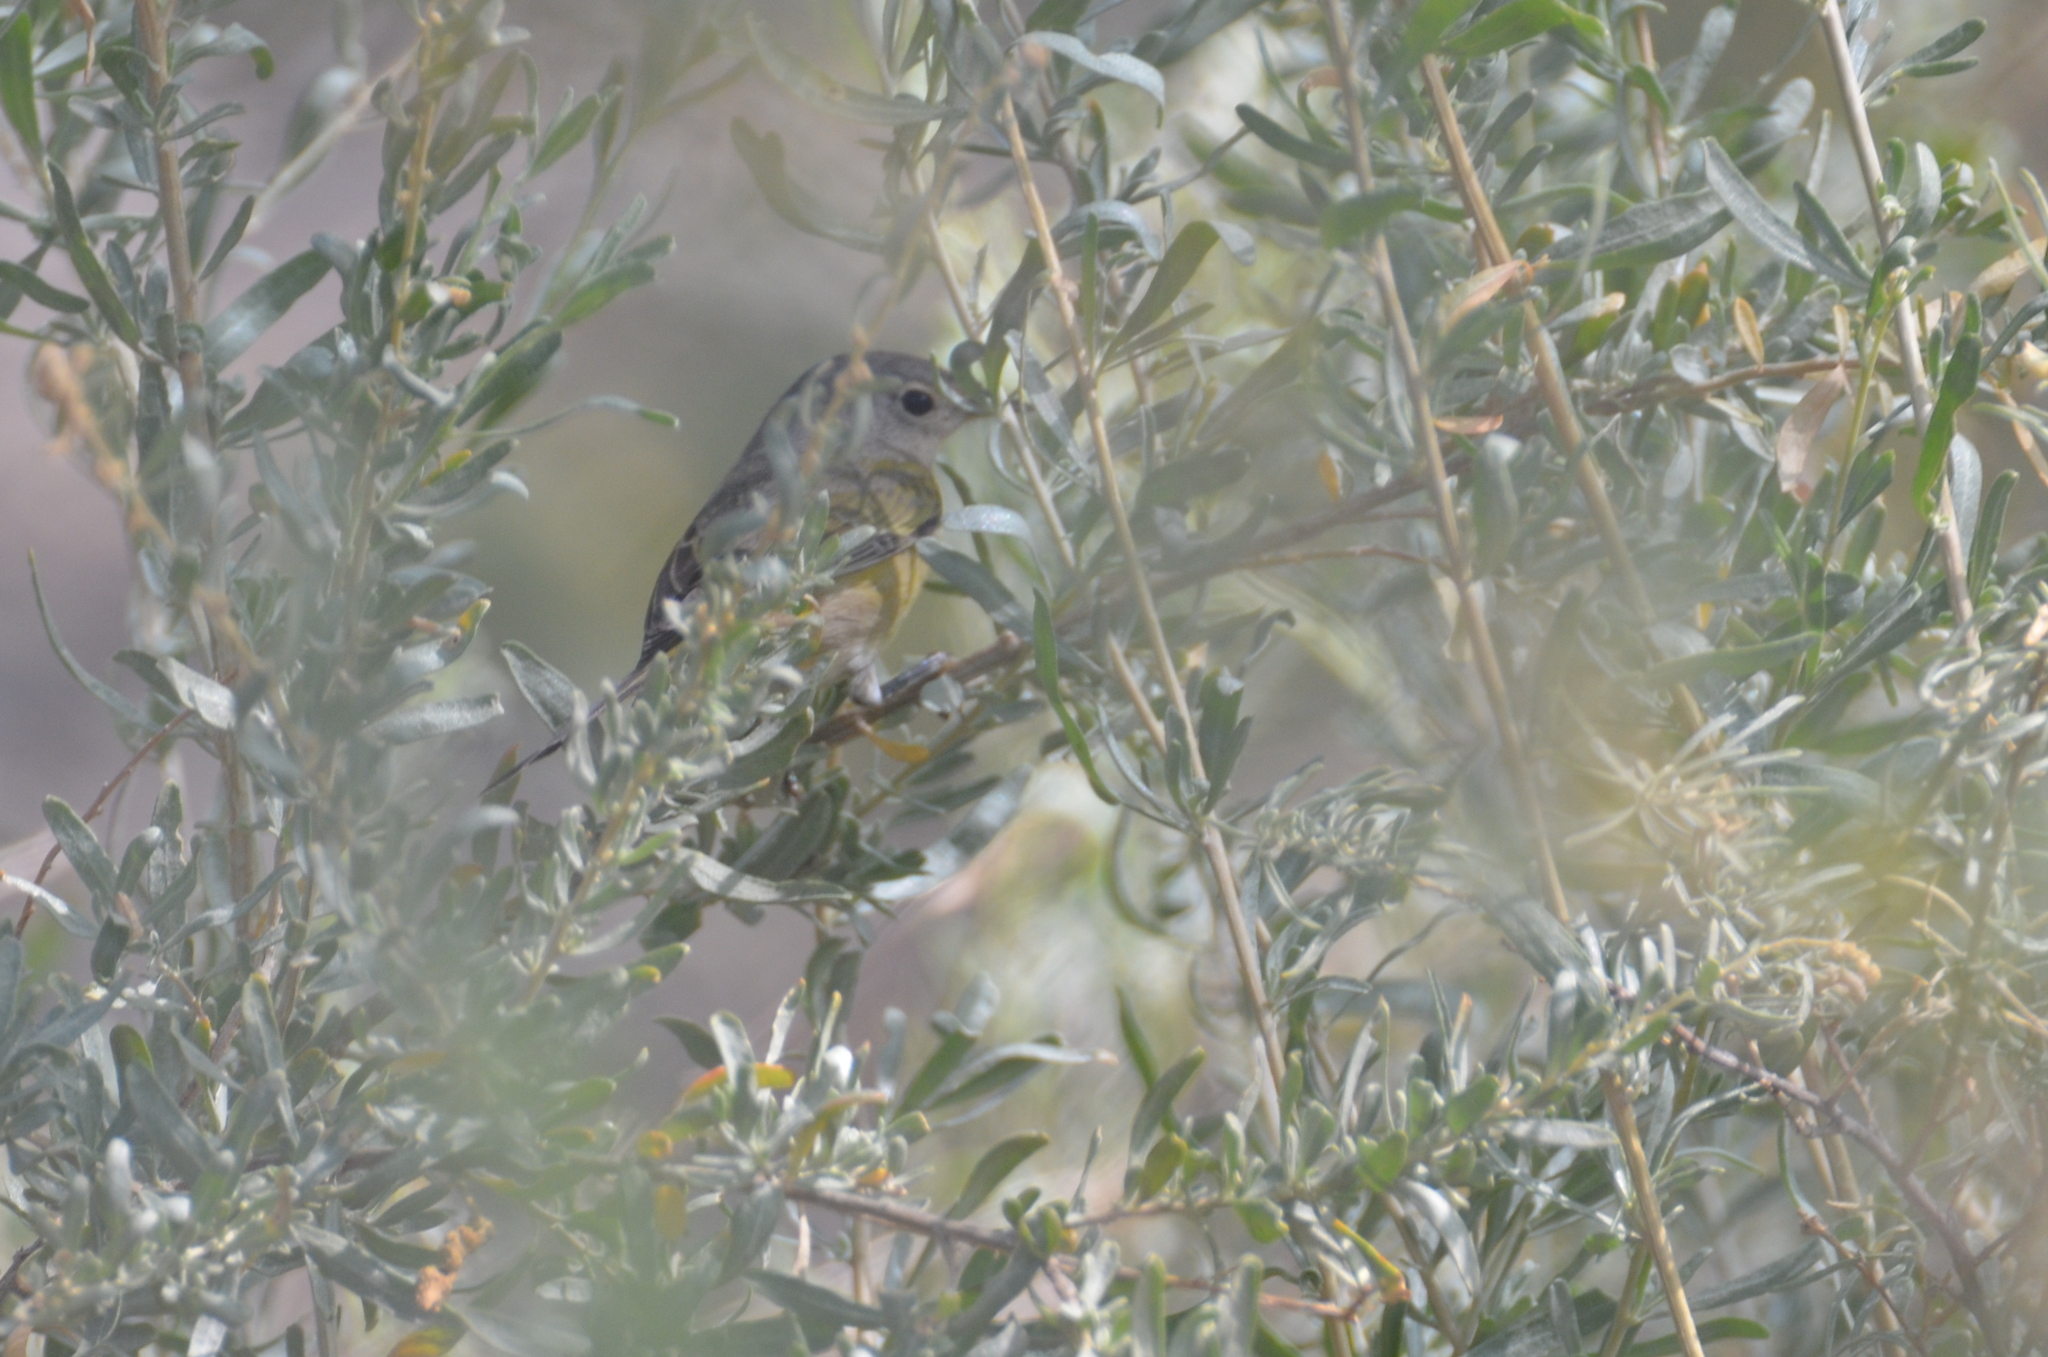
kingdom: Animalia
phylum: Chordata
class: Aves
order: Passeriformes
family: Parulidae
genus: Leiothlypis
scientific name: Leiothlypis ruficapilla
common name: Nashville warbler
